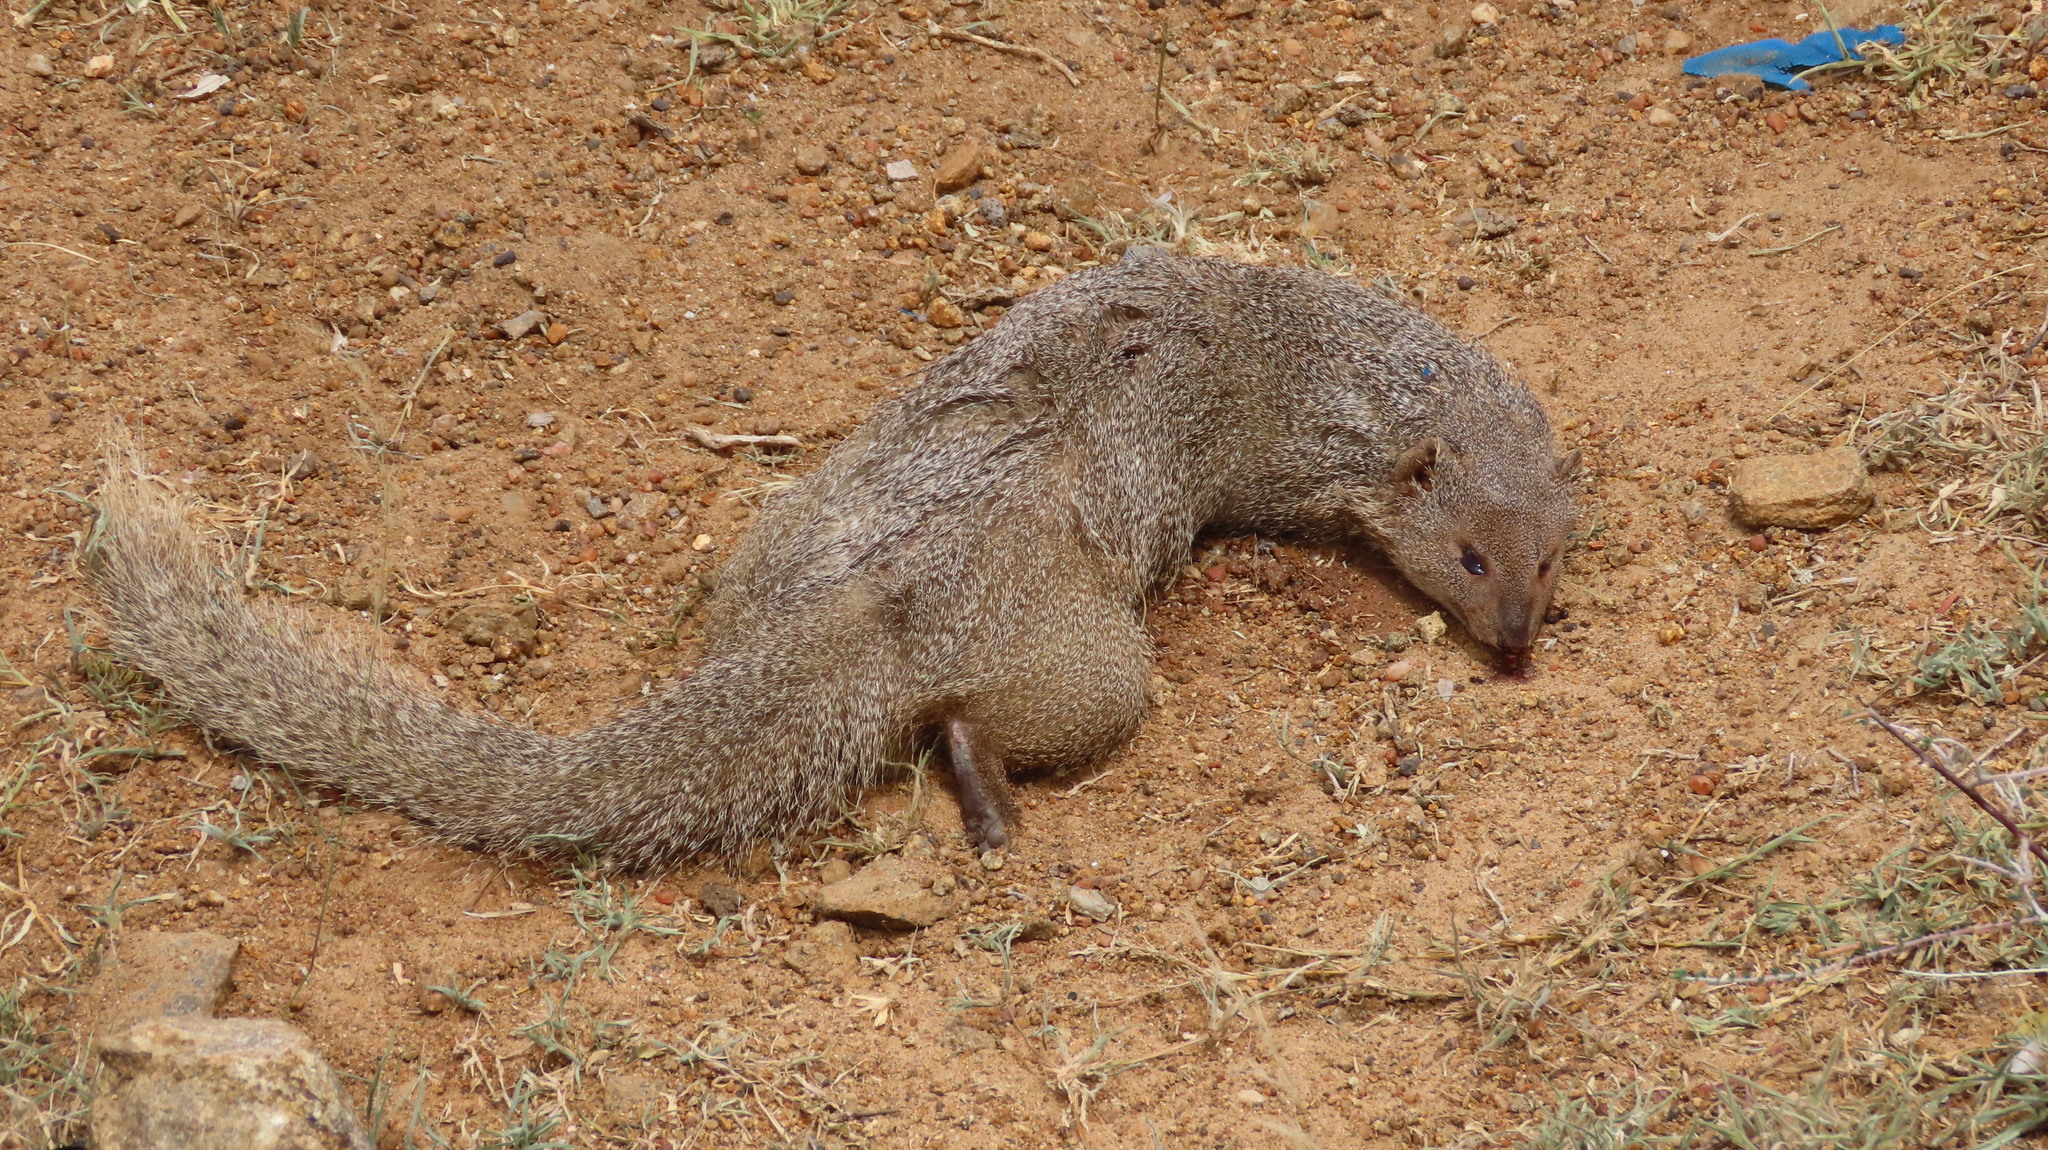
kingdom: Animalia
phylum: Chordata
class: Mammalia
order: Carnivora
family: Herpestidae
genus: Herpestes
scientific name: Herpestes edwardsi
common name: Indian gray mongoose
